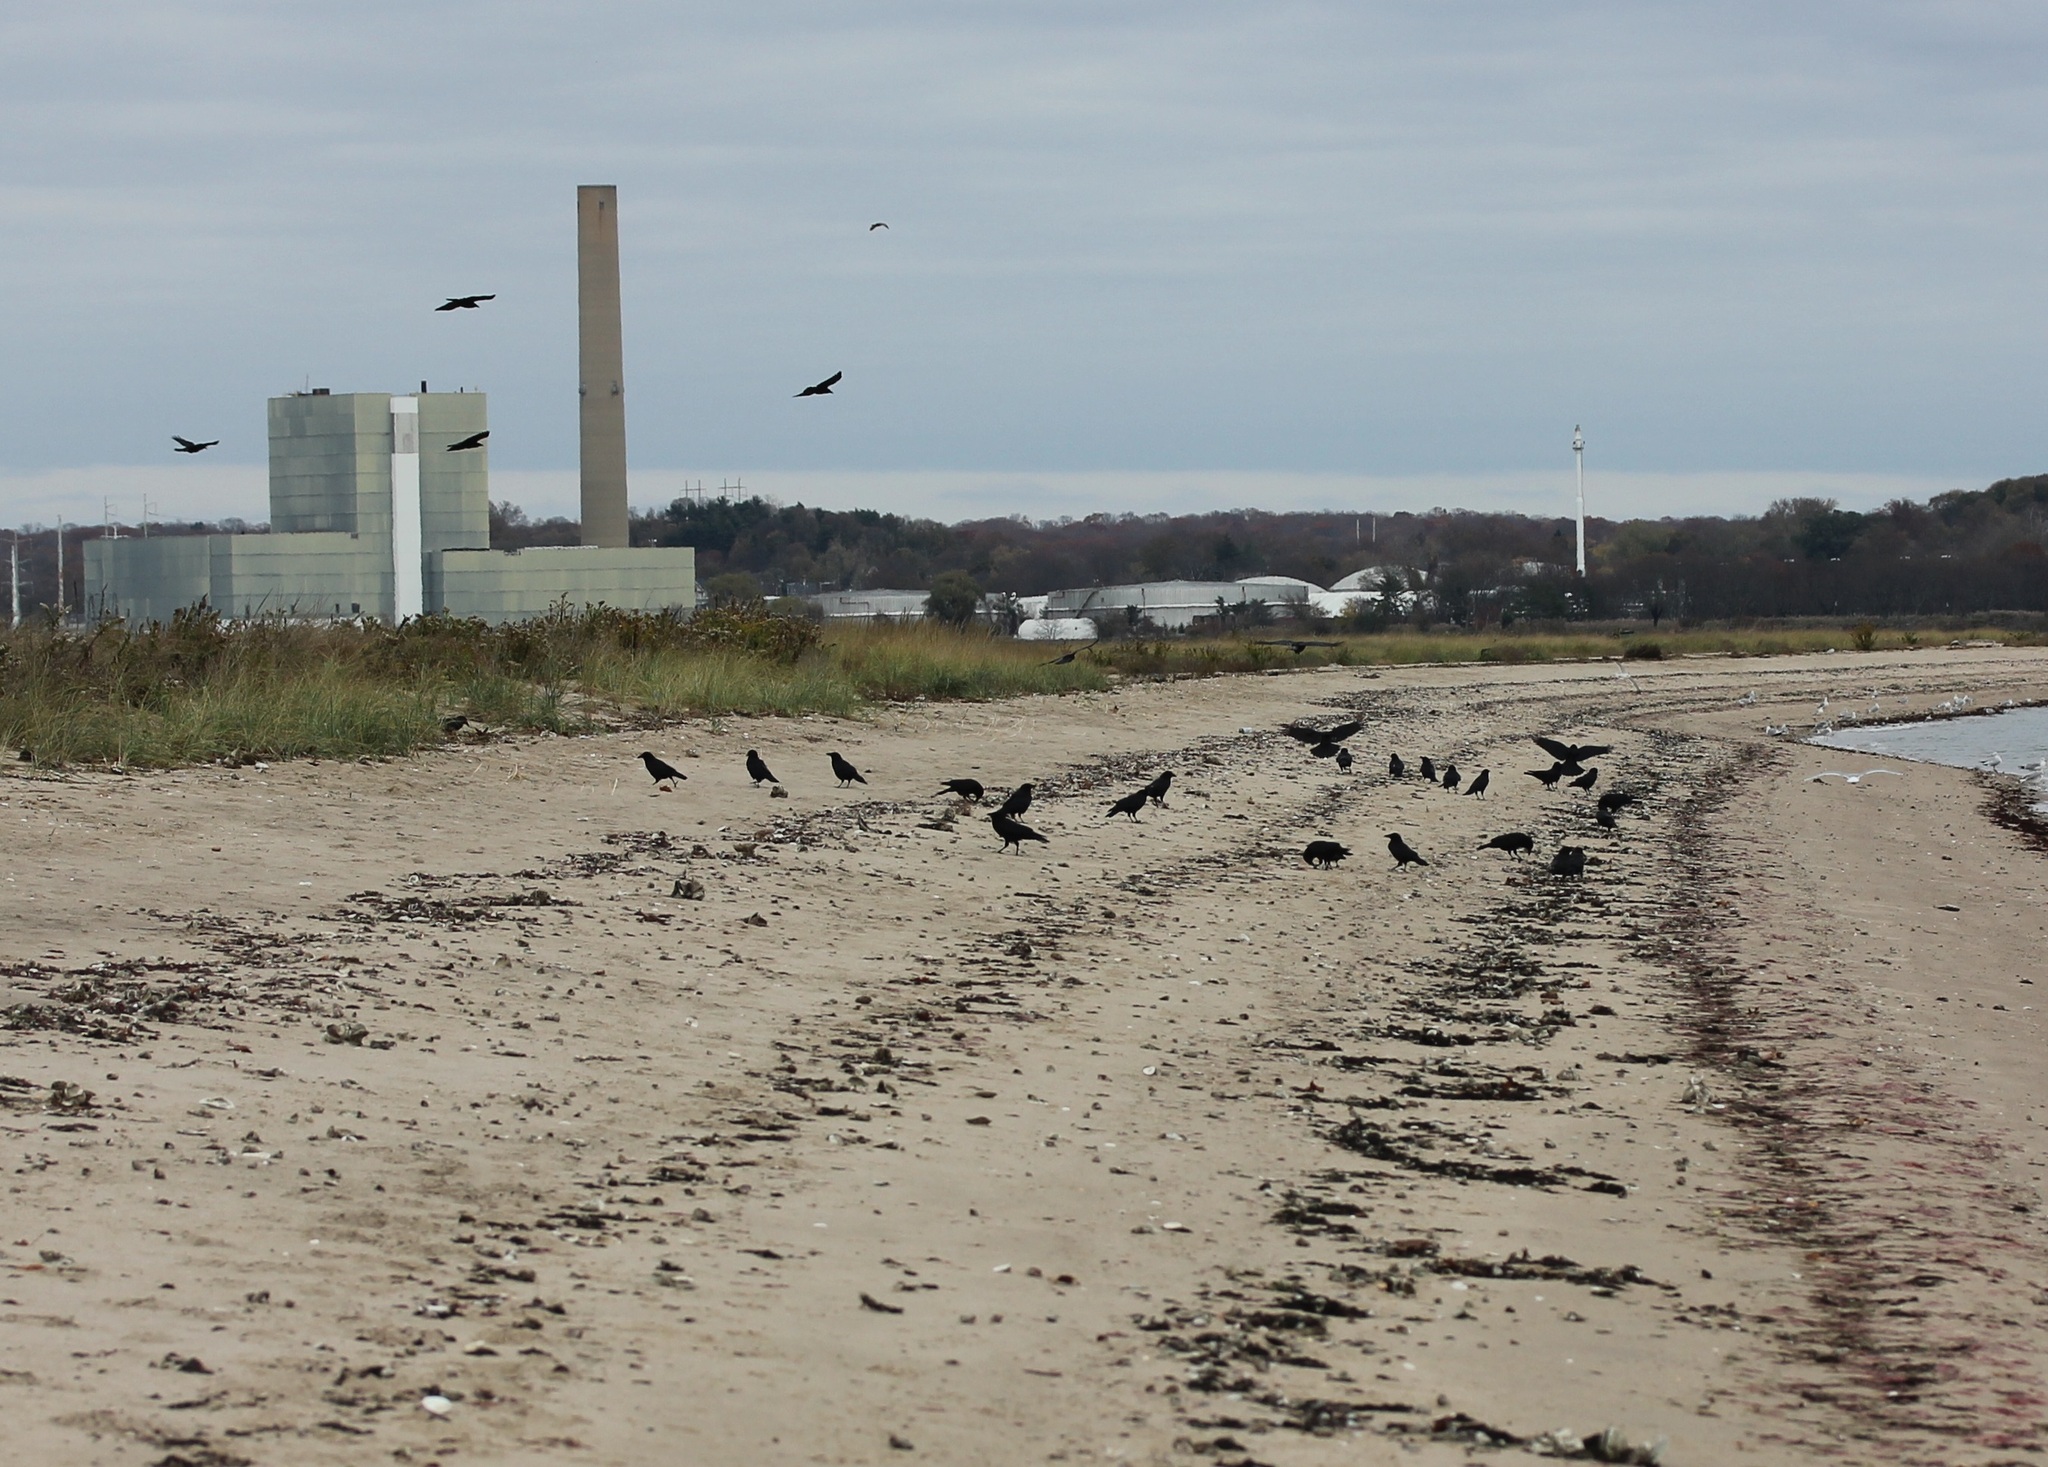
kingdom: Animalia
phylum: Chordata
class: Aves
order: Passeriformes
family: Corvidae
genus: Corvus
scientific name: Corvus brachyrhynchos
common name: American crow
